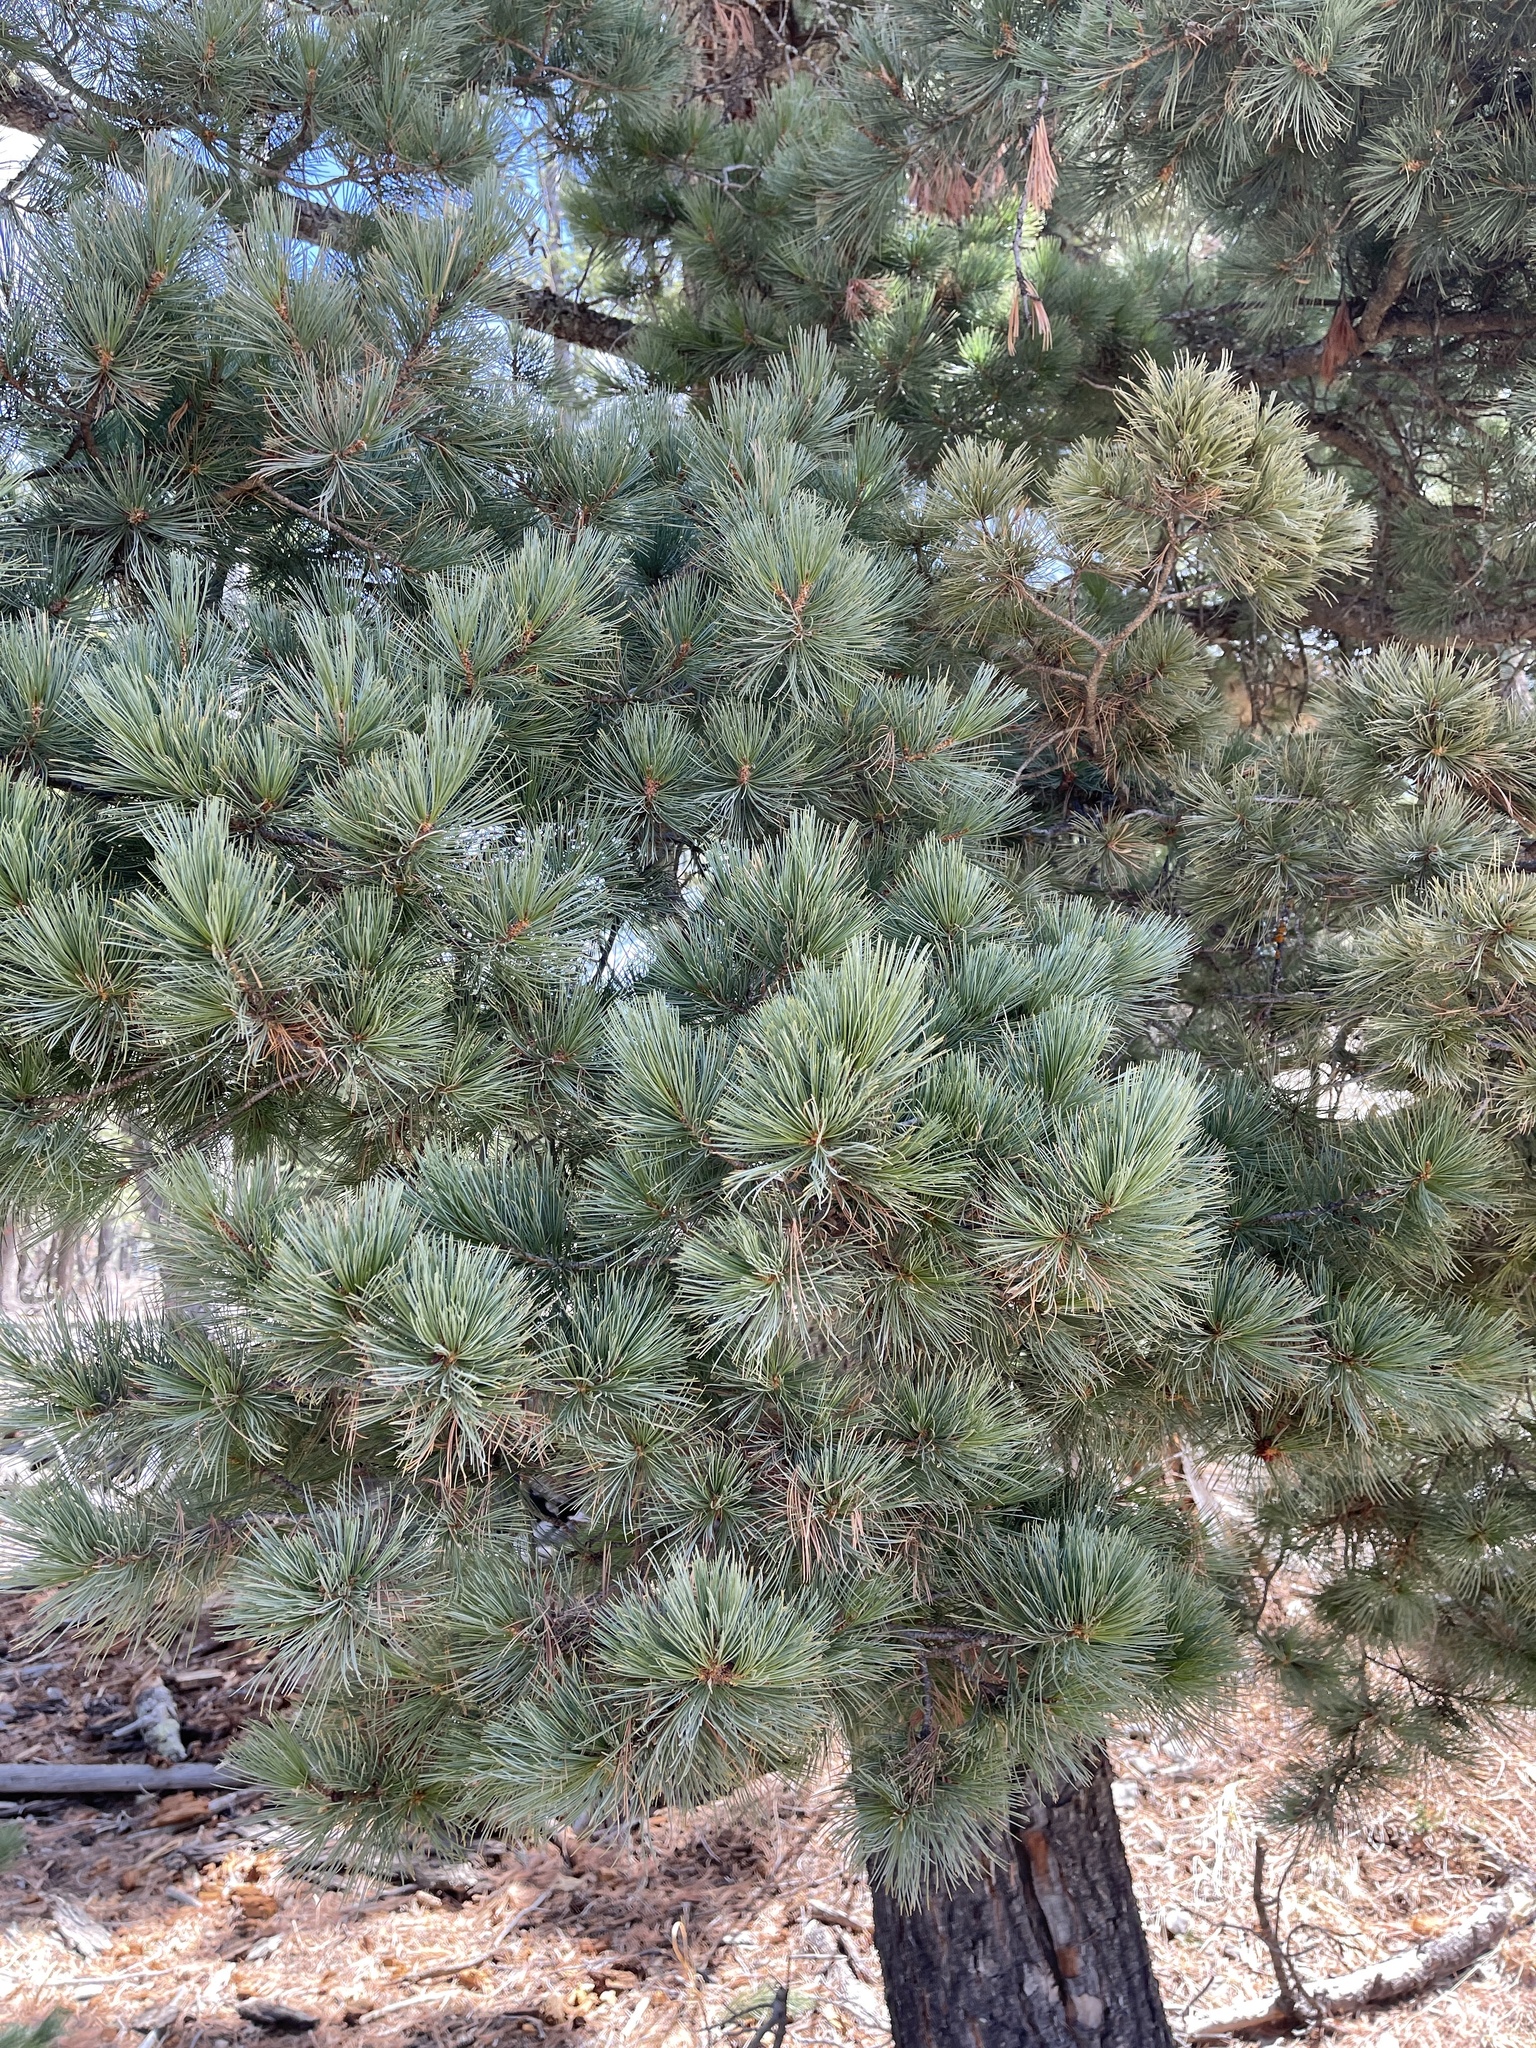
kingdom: Plantae
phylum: Tracheophyta
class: Pinopsida
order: Pinales
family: Pinaceae
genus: Pinus
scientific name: Pinus strobiformis
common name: Southwestern white pine
